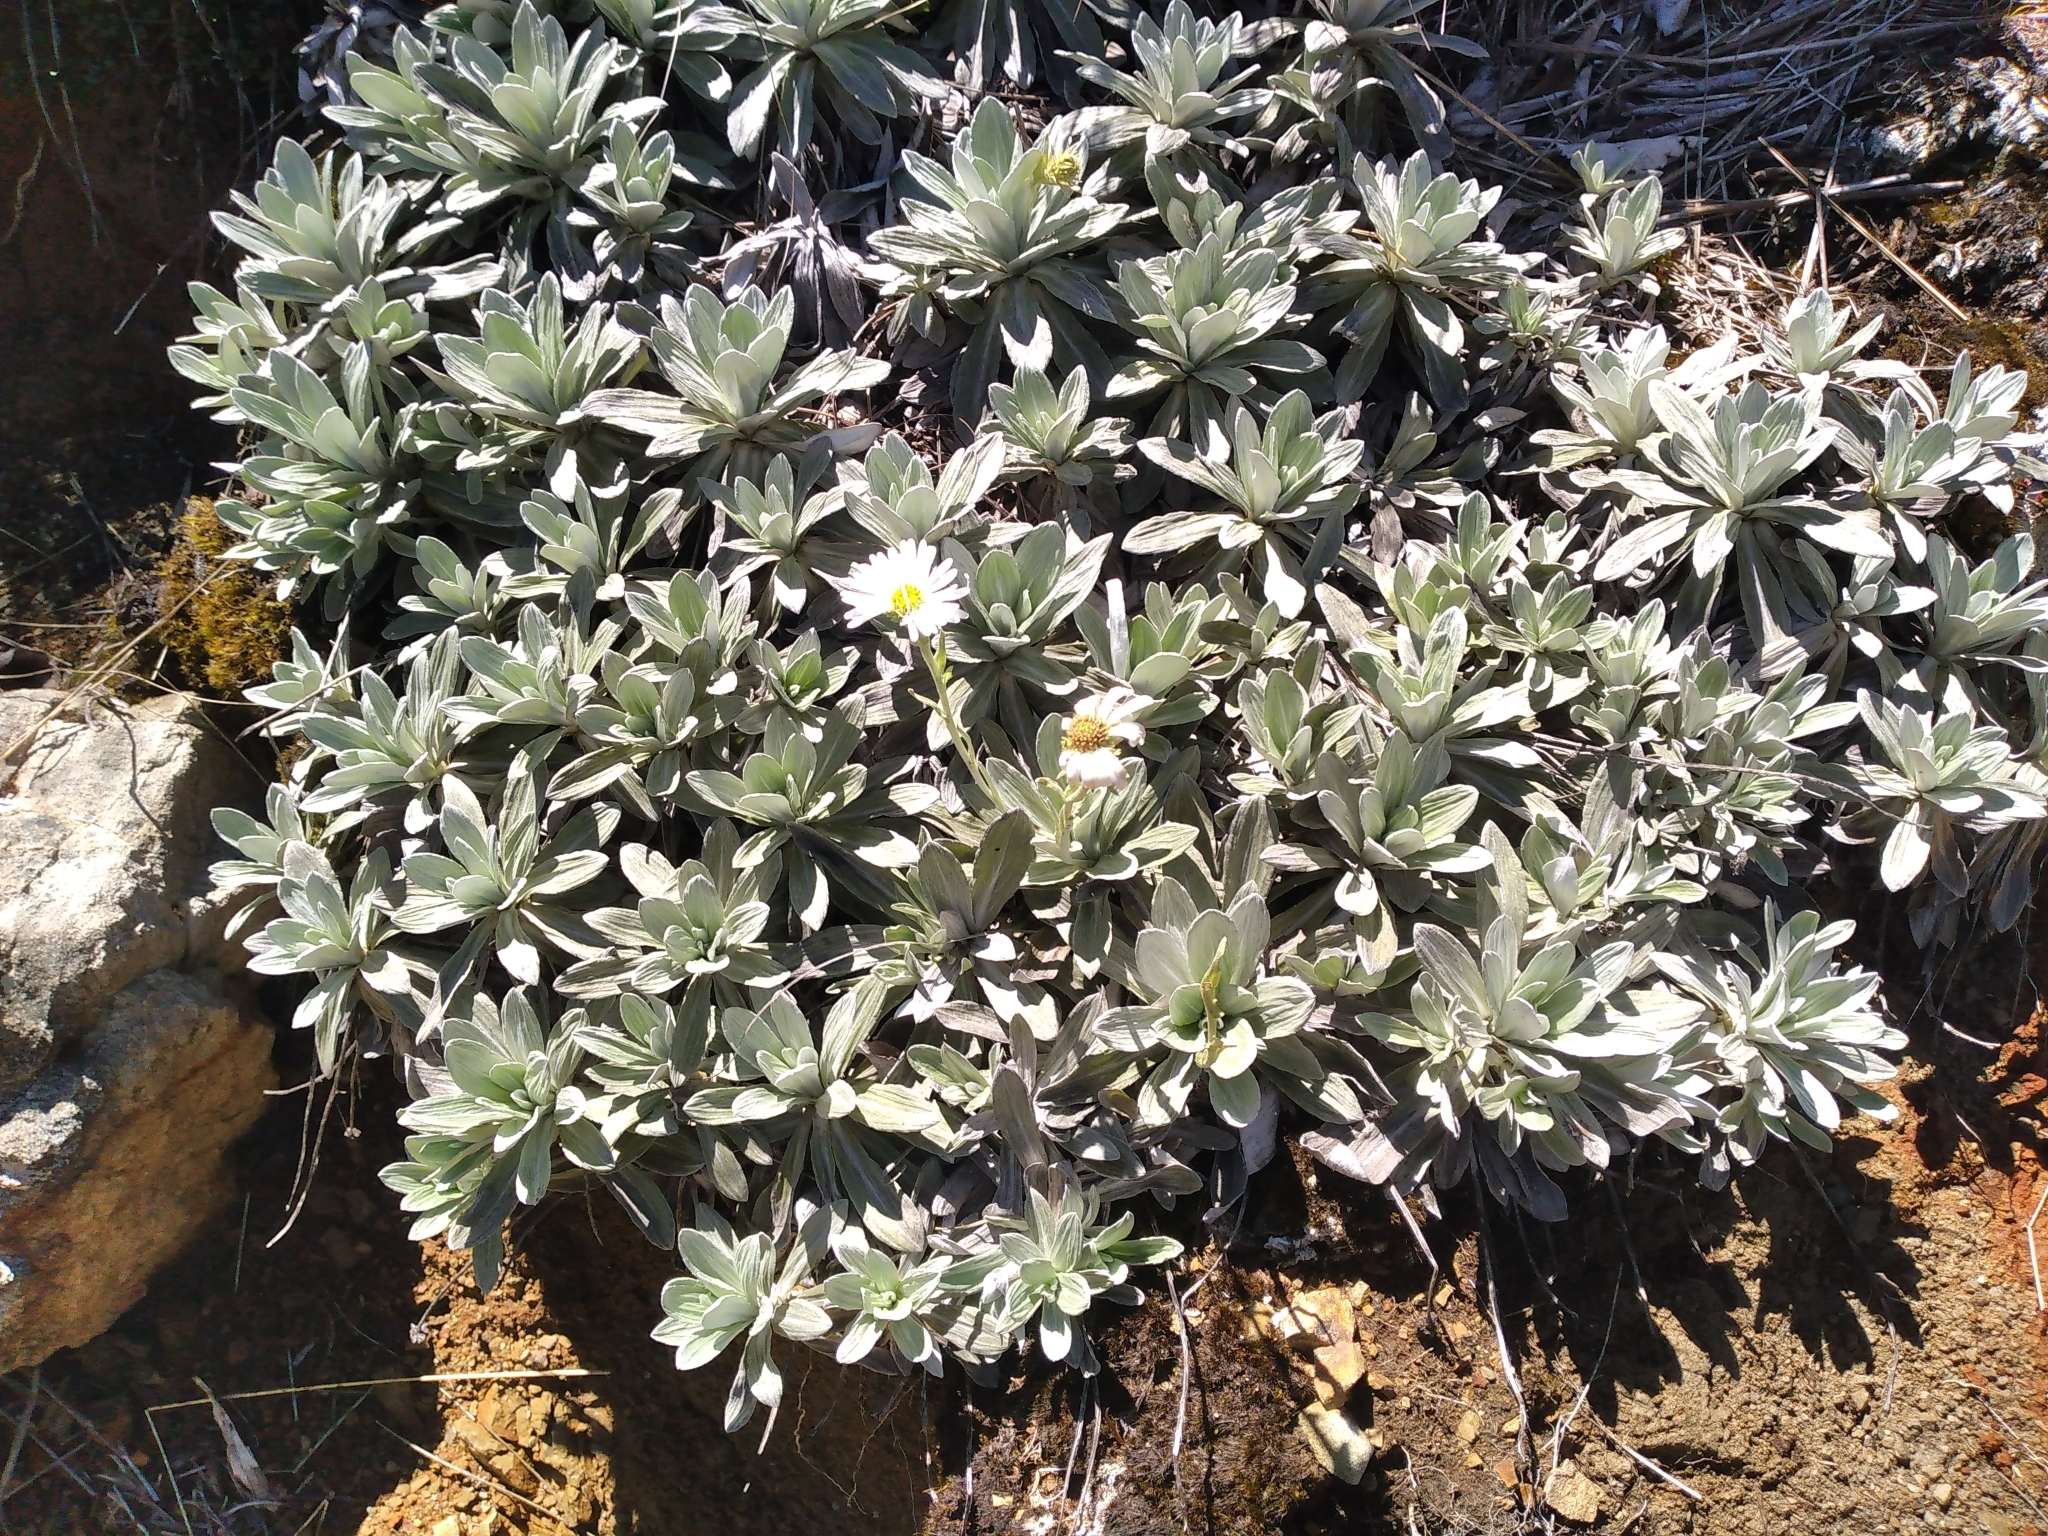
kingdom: Plantae
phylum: Tracheophyta
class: Magnoliopsida
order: Asterales
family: Asteraceae
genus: Celmisia
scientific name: Celmisia incana
